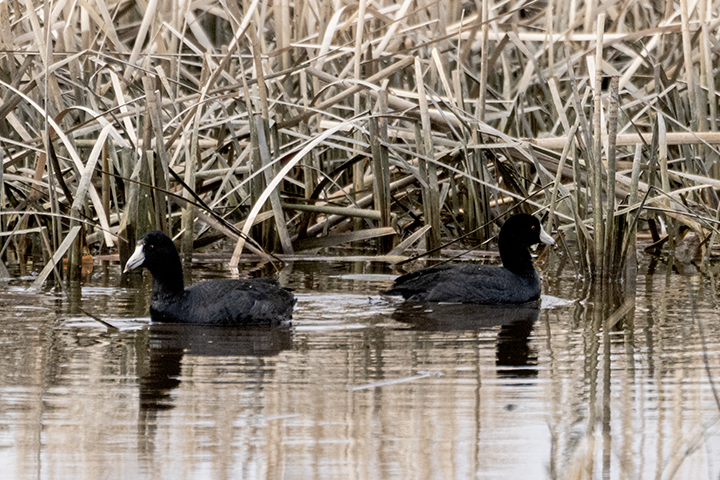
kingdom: Animalia
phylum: Chordata
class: Aves
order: Gruiformes
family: Rallidae
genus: Fulica
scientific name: Fulica americana
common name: American coot
